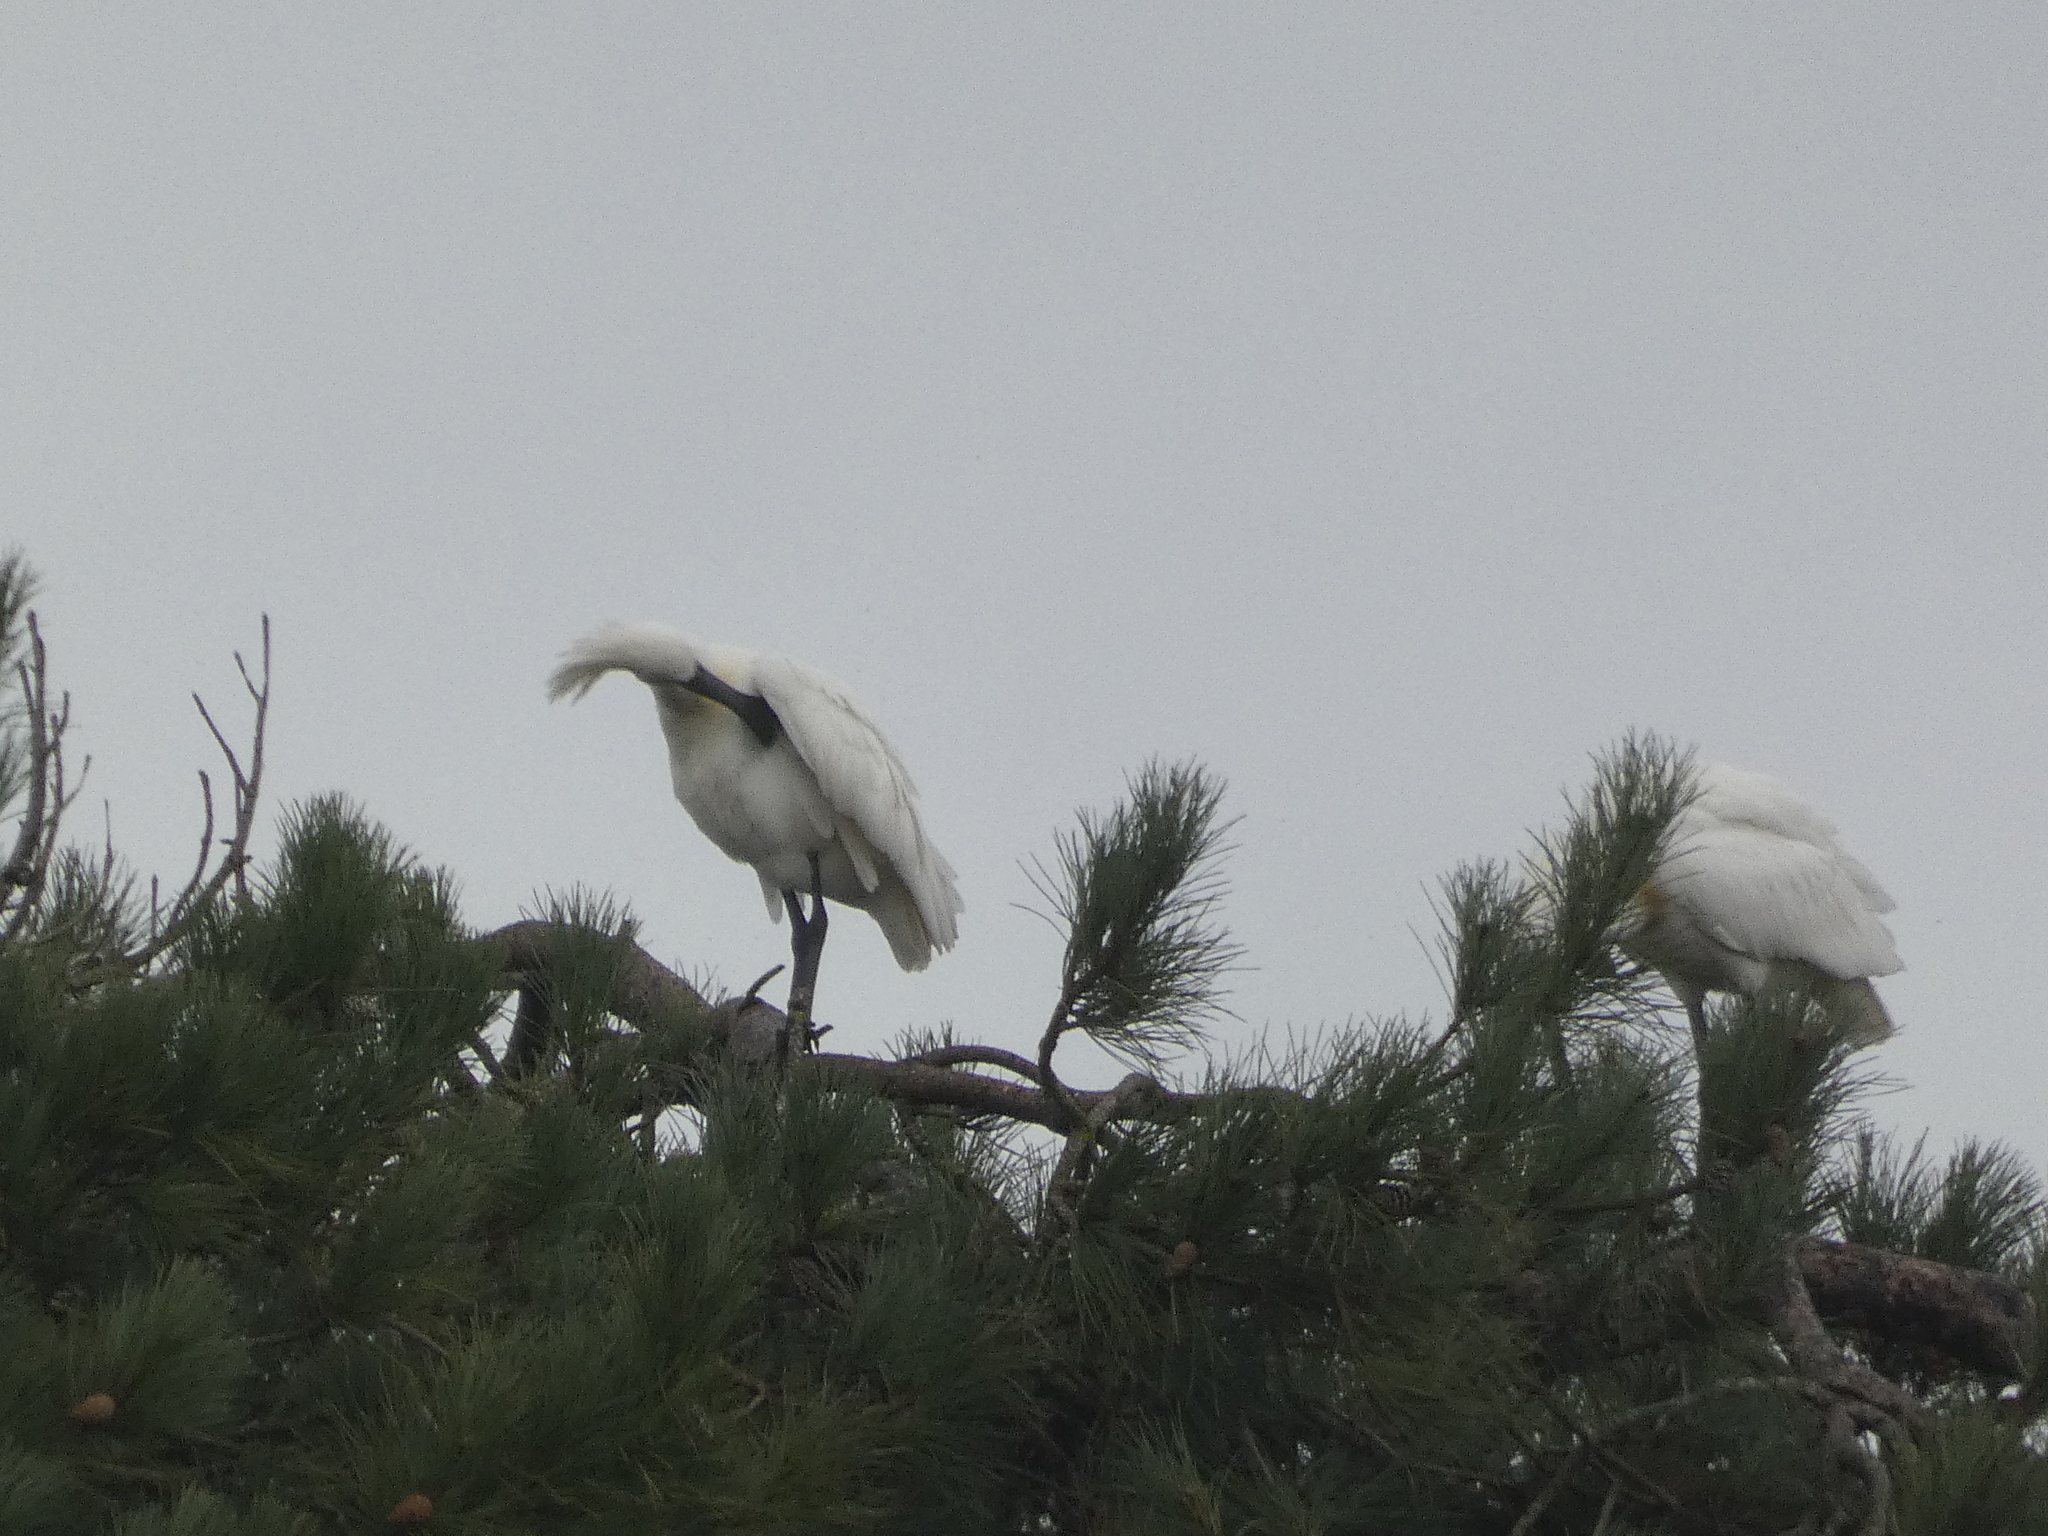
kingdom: Animalia
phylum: Chordata
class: Aves
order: Pelecaniformes
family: Threskiornithidae
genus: Platalea
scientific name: Platalea leucorodia
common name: Eurasian spoonbill
